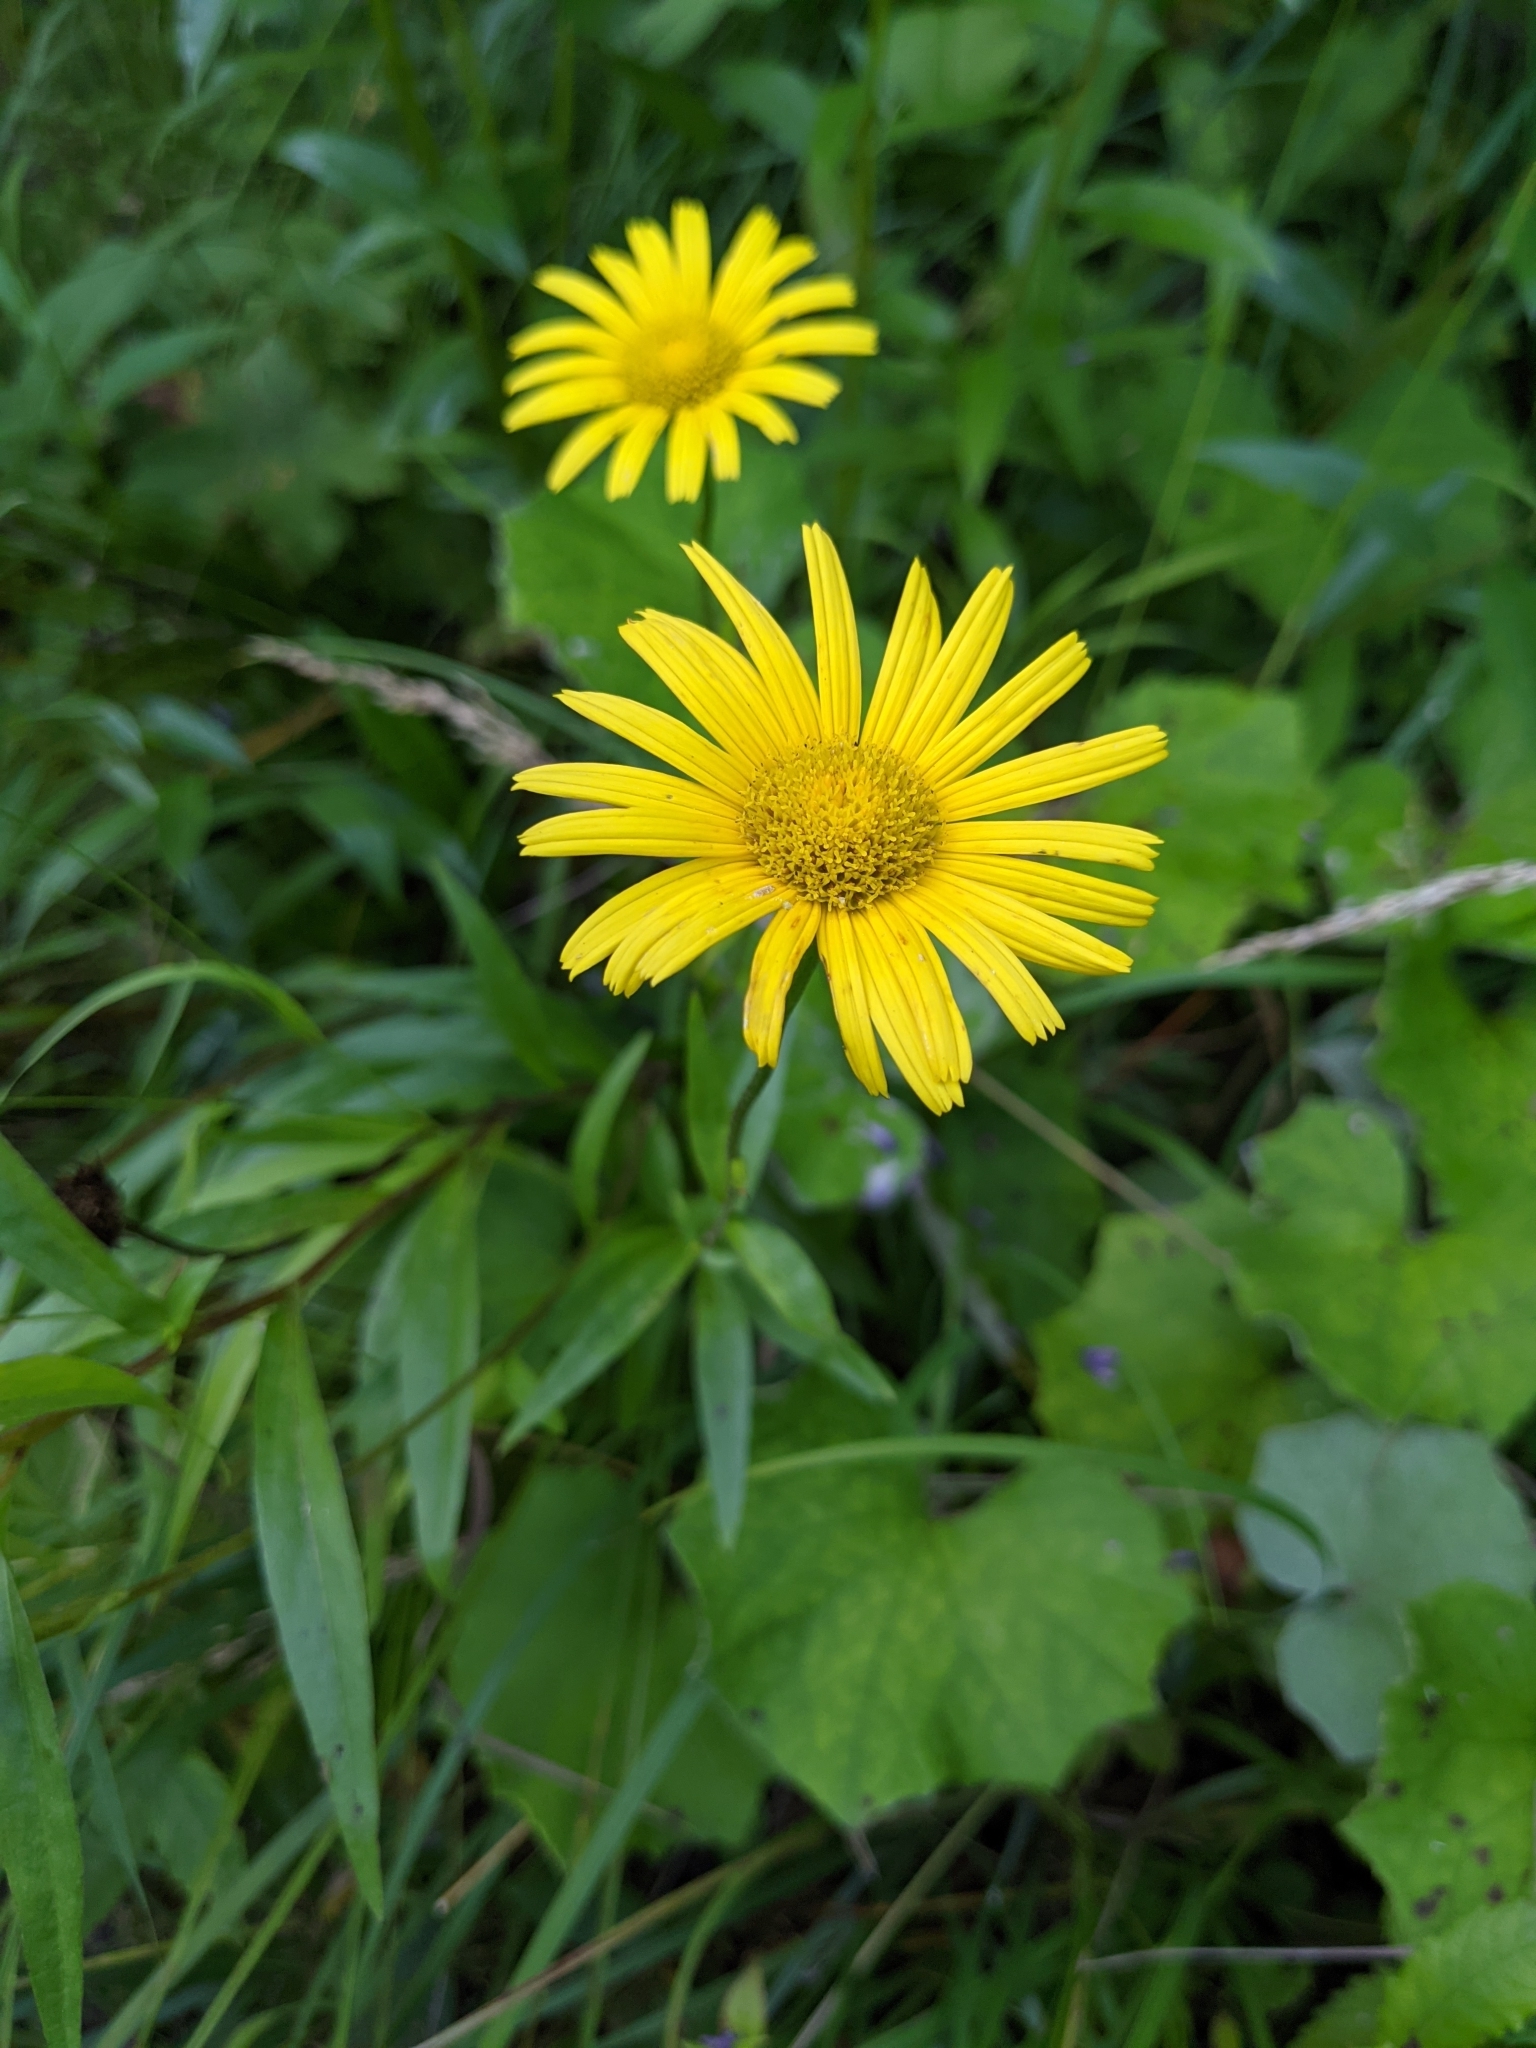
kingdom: Plantae
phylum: Tracheophyta
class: Magnoliopsida
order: Asterales
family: Asteraceae
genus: Buphthalmum
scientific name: Buphthalmum salicifolium
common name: Willow-leaved yellow-oxeye
